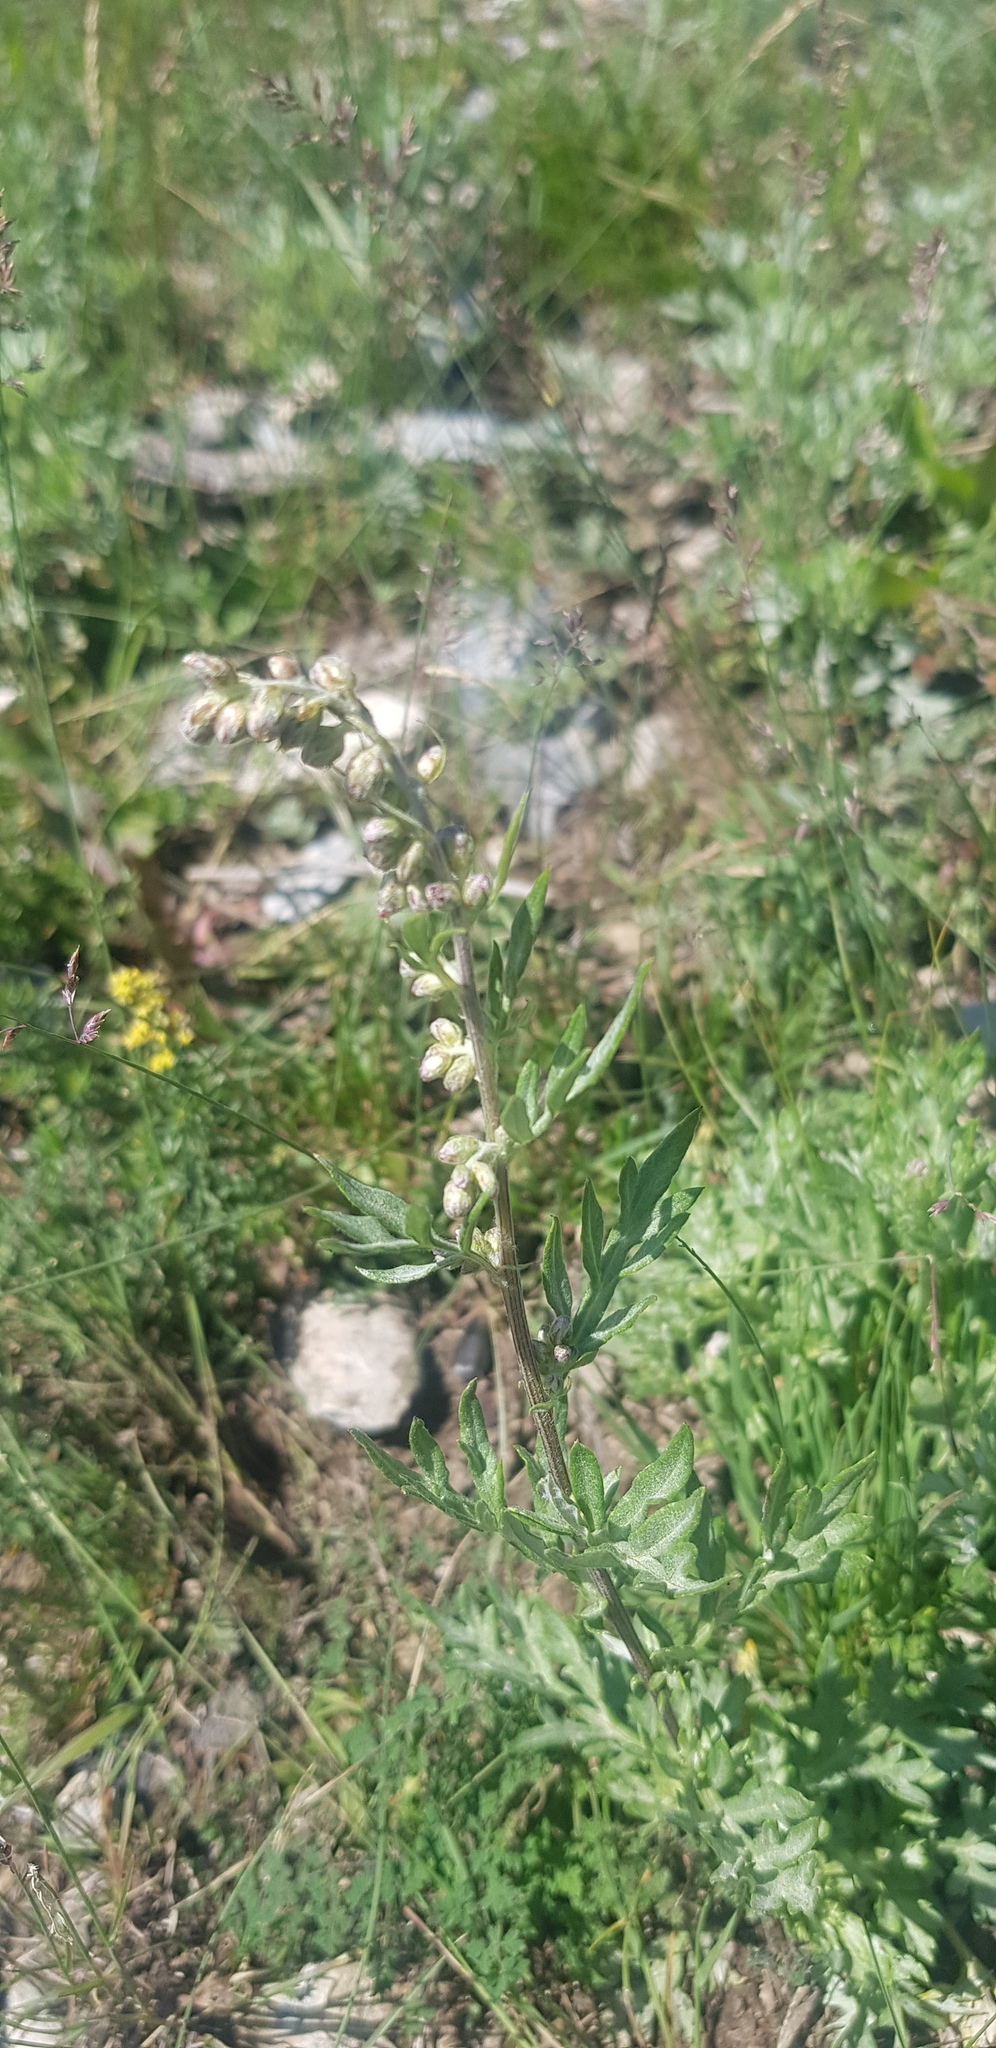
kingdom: Plantae
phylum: Tracheophyta
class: Magnoliopsida
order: Asterales
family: Asteraceae
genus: Artemisia
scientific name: Artemisia vulgaris
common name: Mugwort
